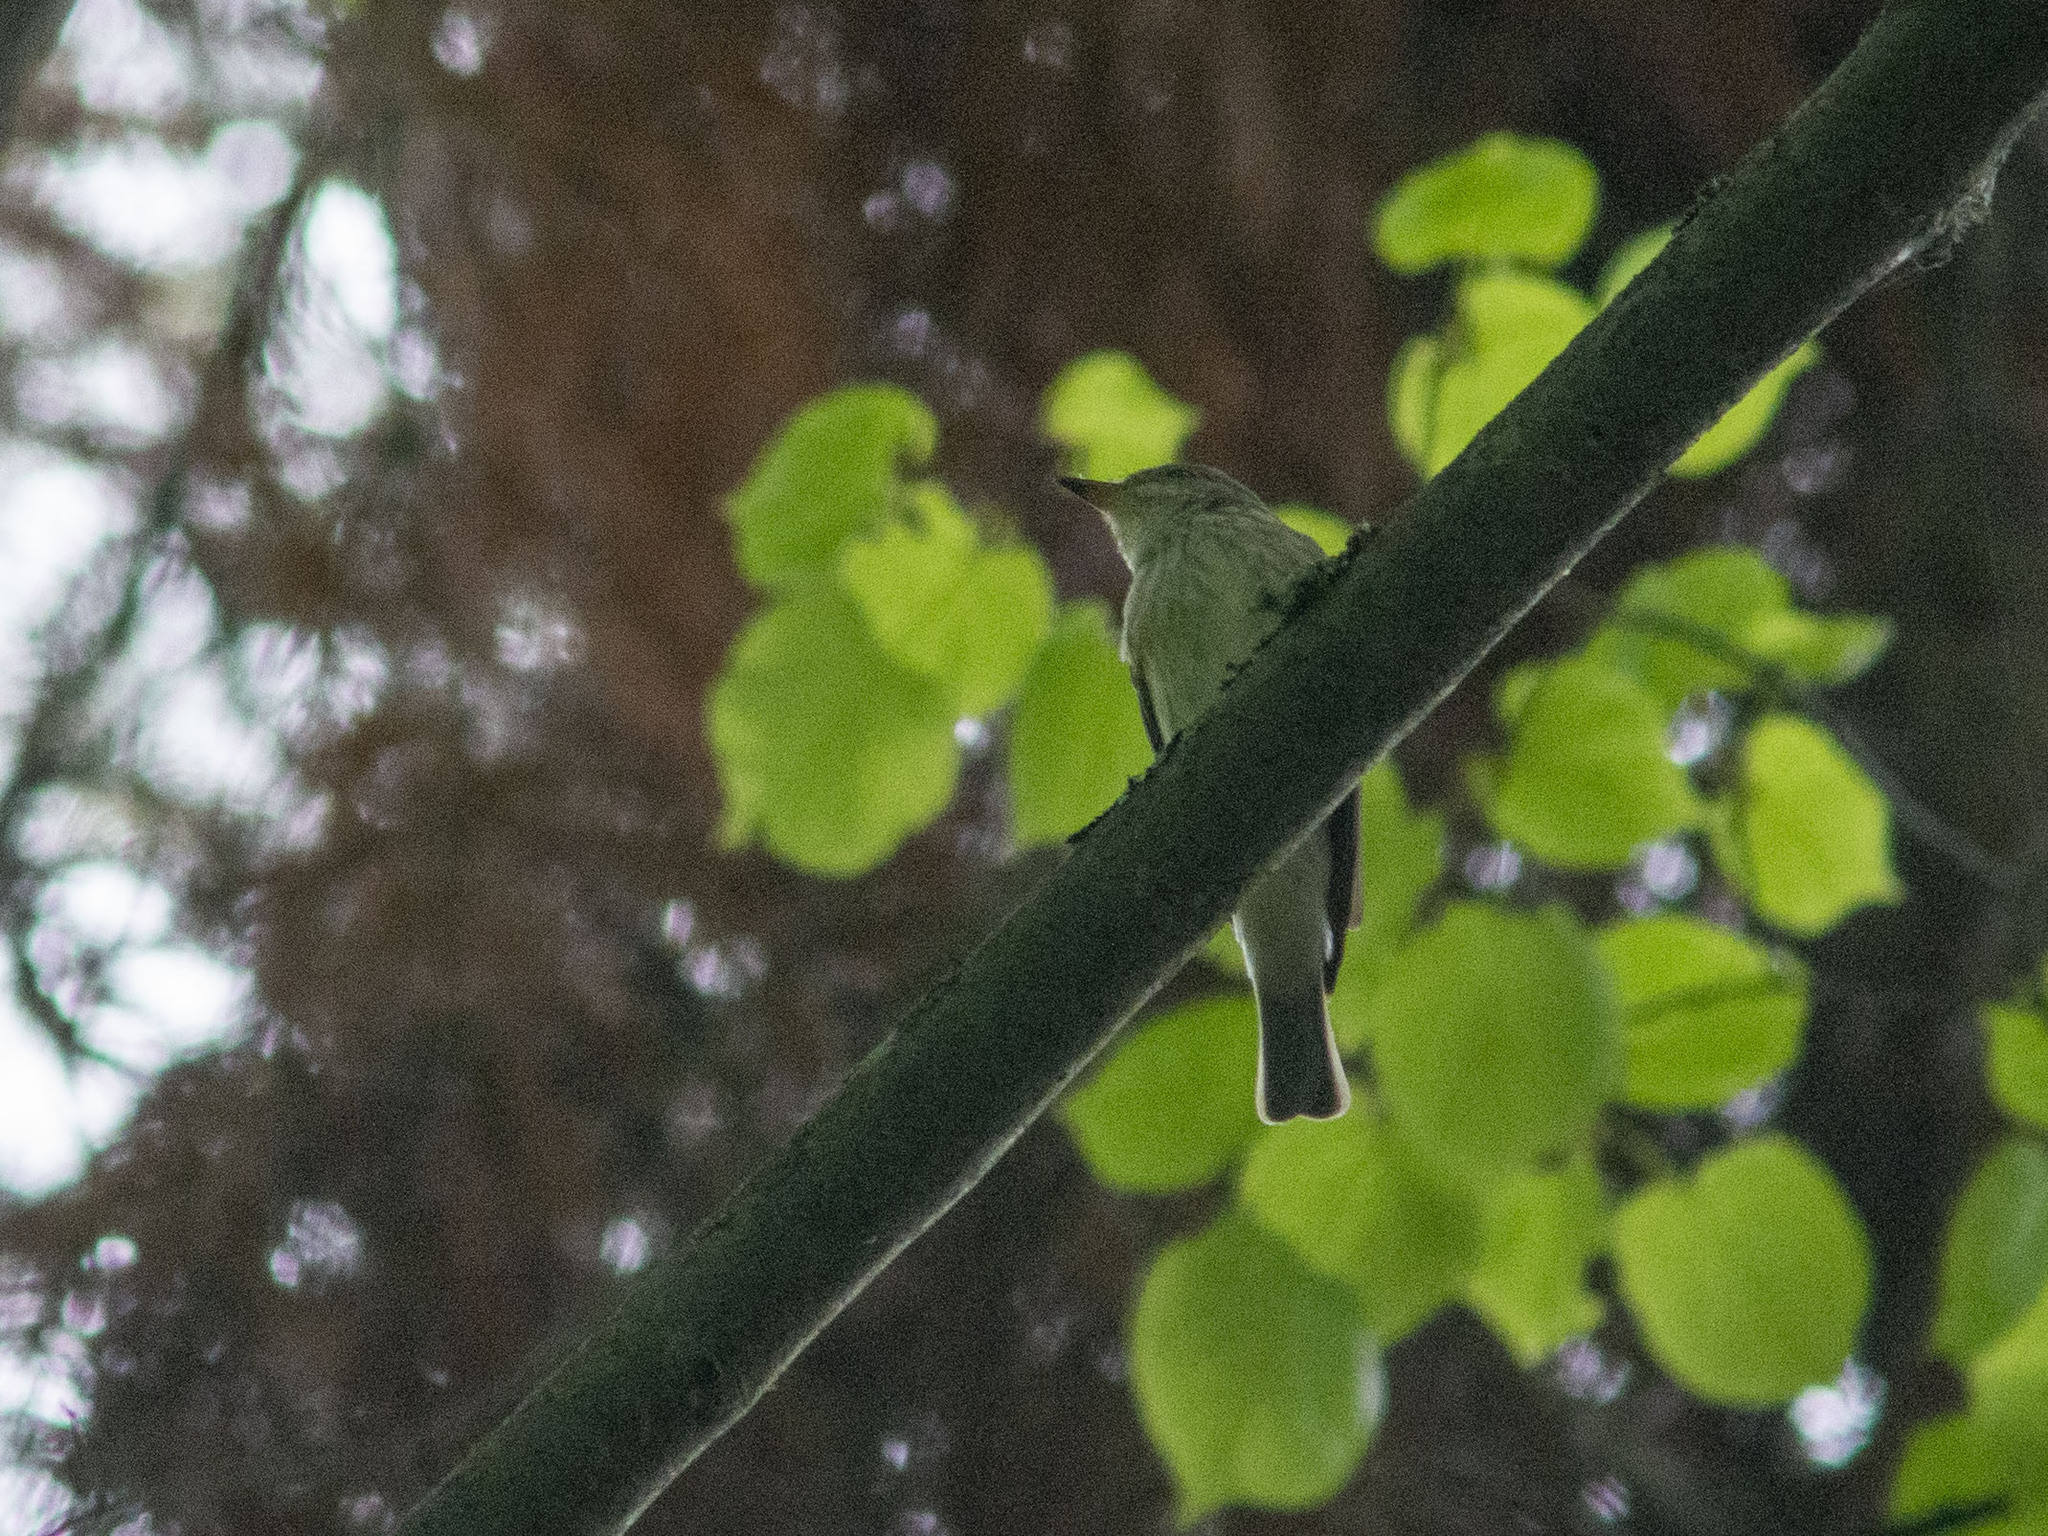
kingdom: Animalia
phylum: Chordata
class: Aves
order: Passeriformes
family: Muscicapidae
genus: Muscicapa
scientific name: Muscicapa striata
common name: Spotted flycatcher
